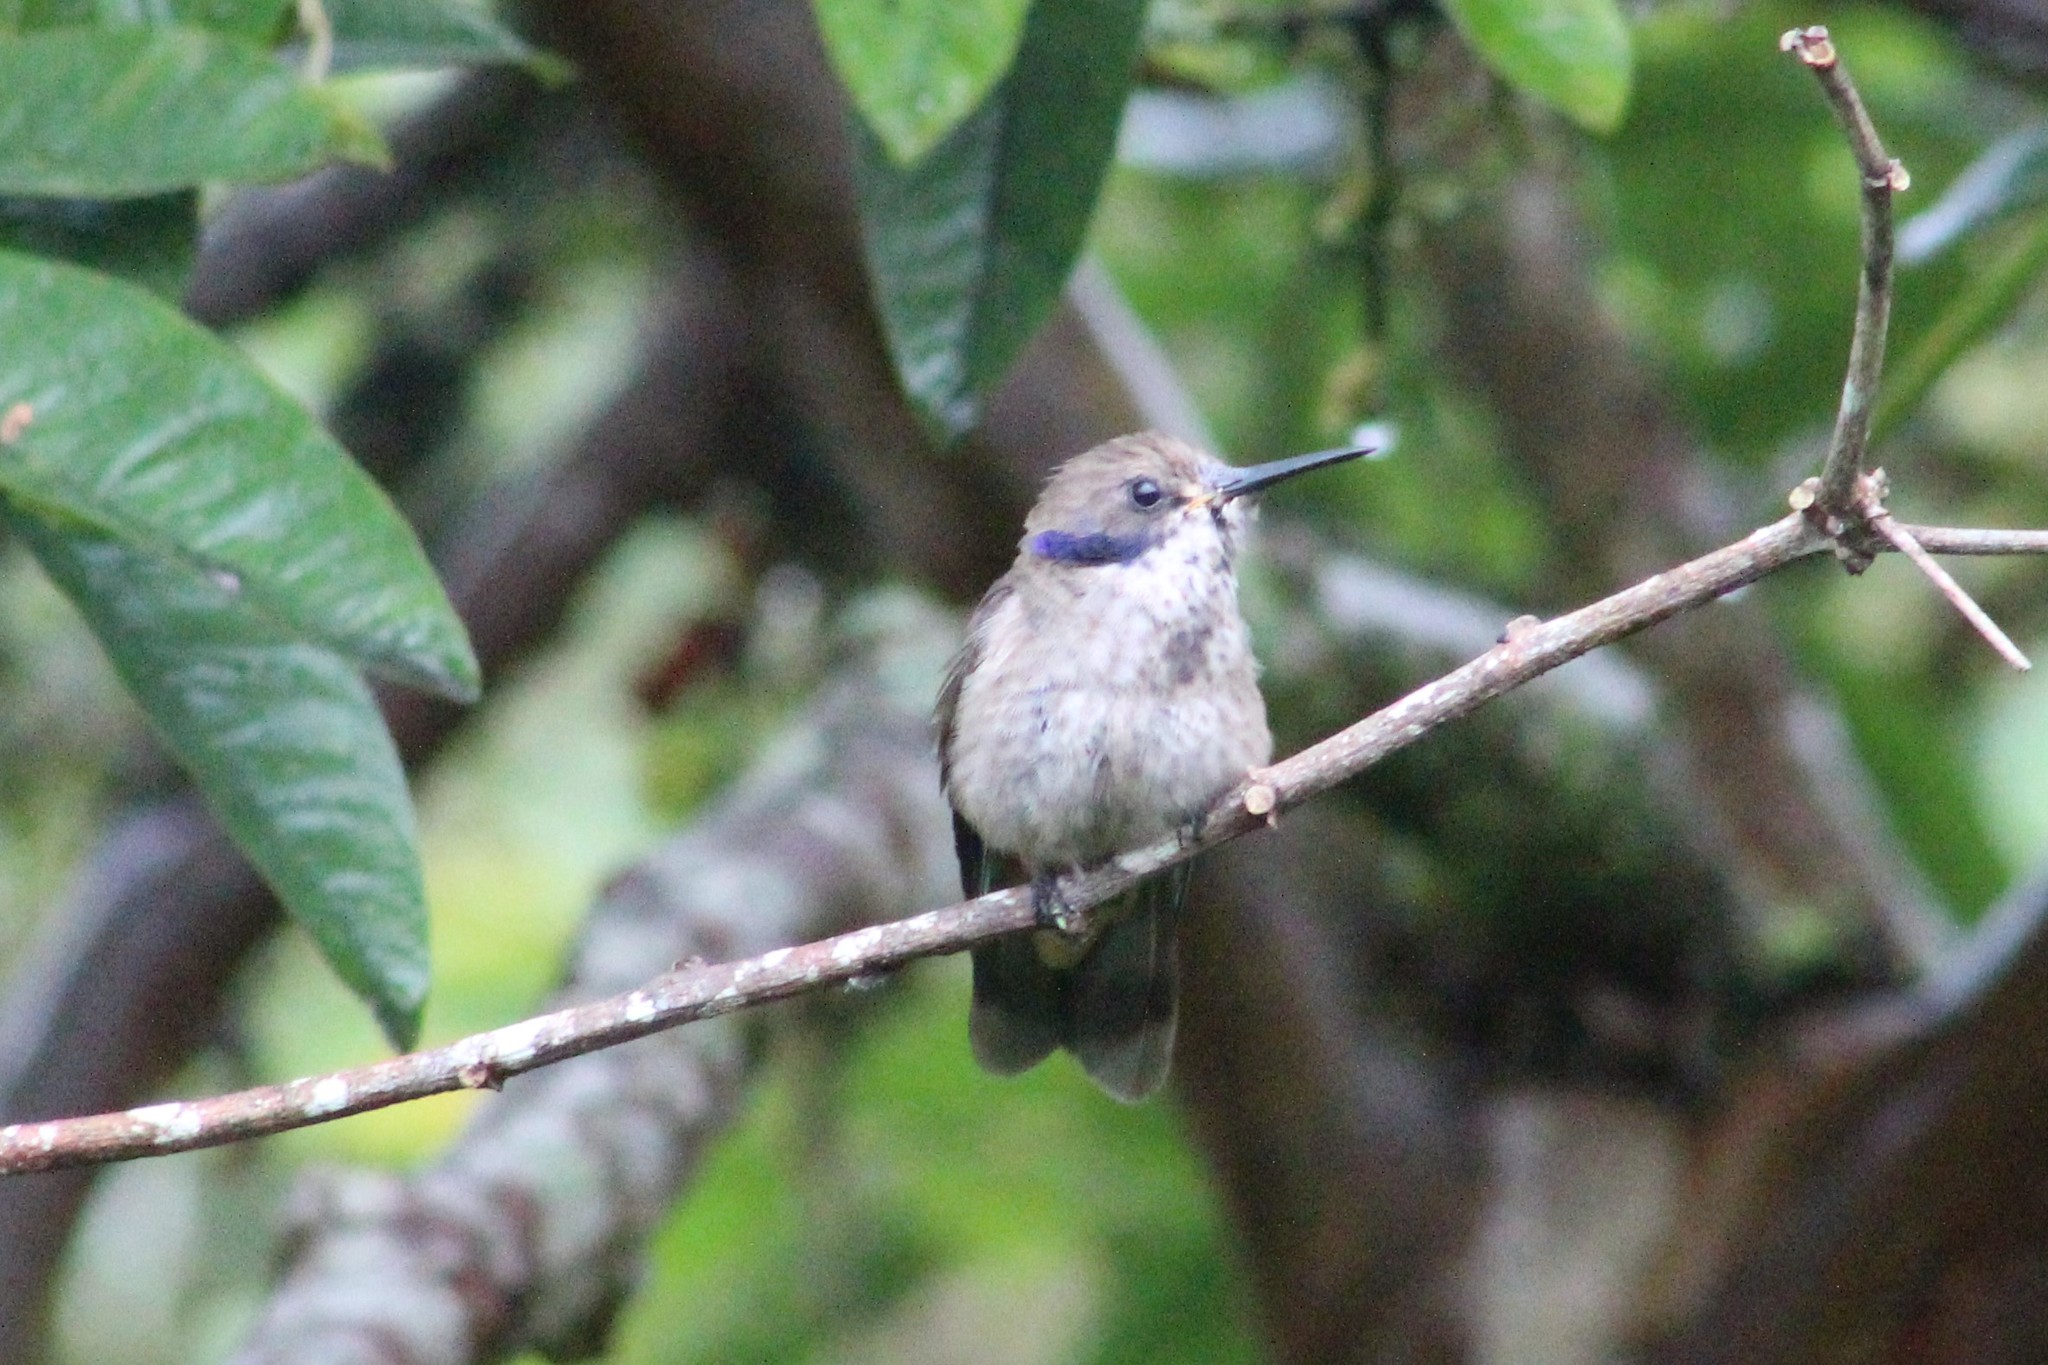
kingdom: Animalia
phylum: Chordata
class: Aves
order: Apodiformes
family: Trochilidae
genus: Colibri
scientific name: Colibri delphinae
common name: Brown violetear
